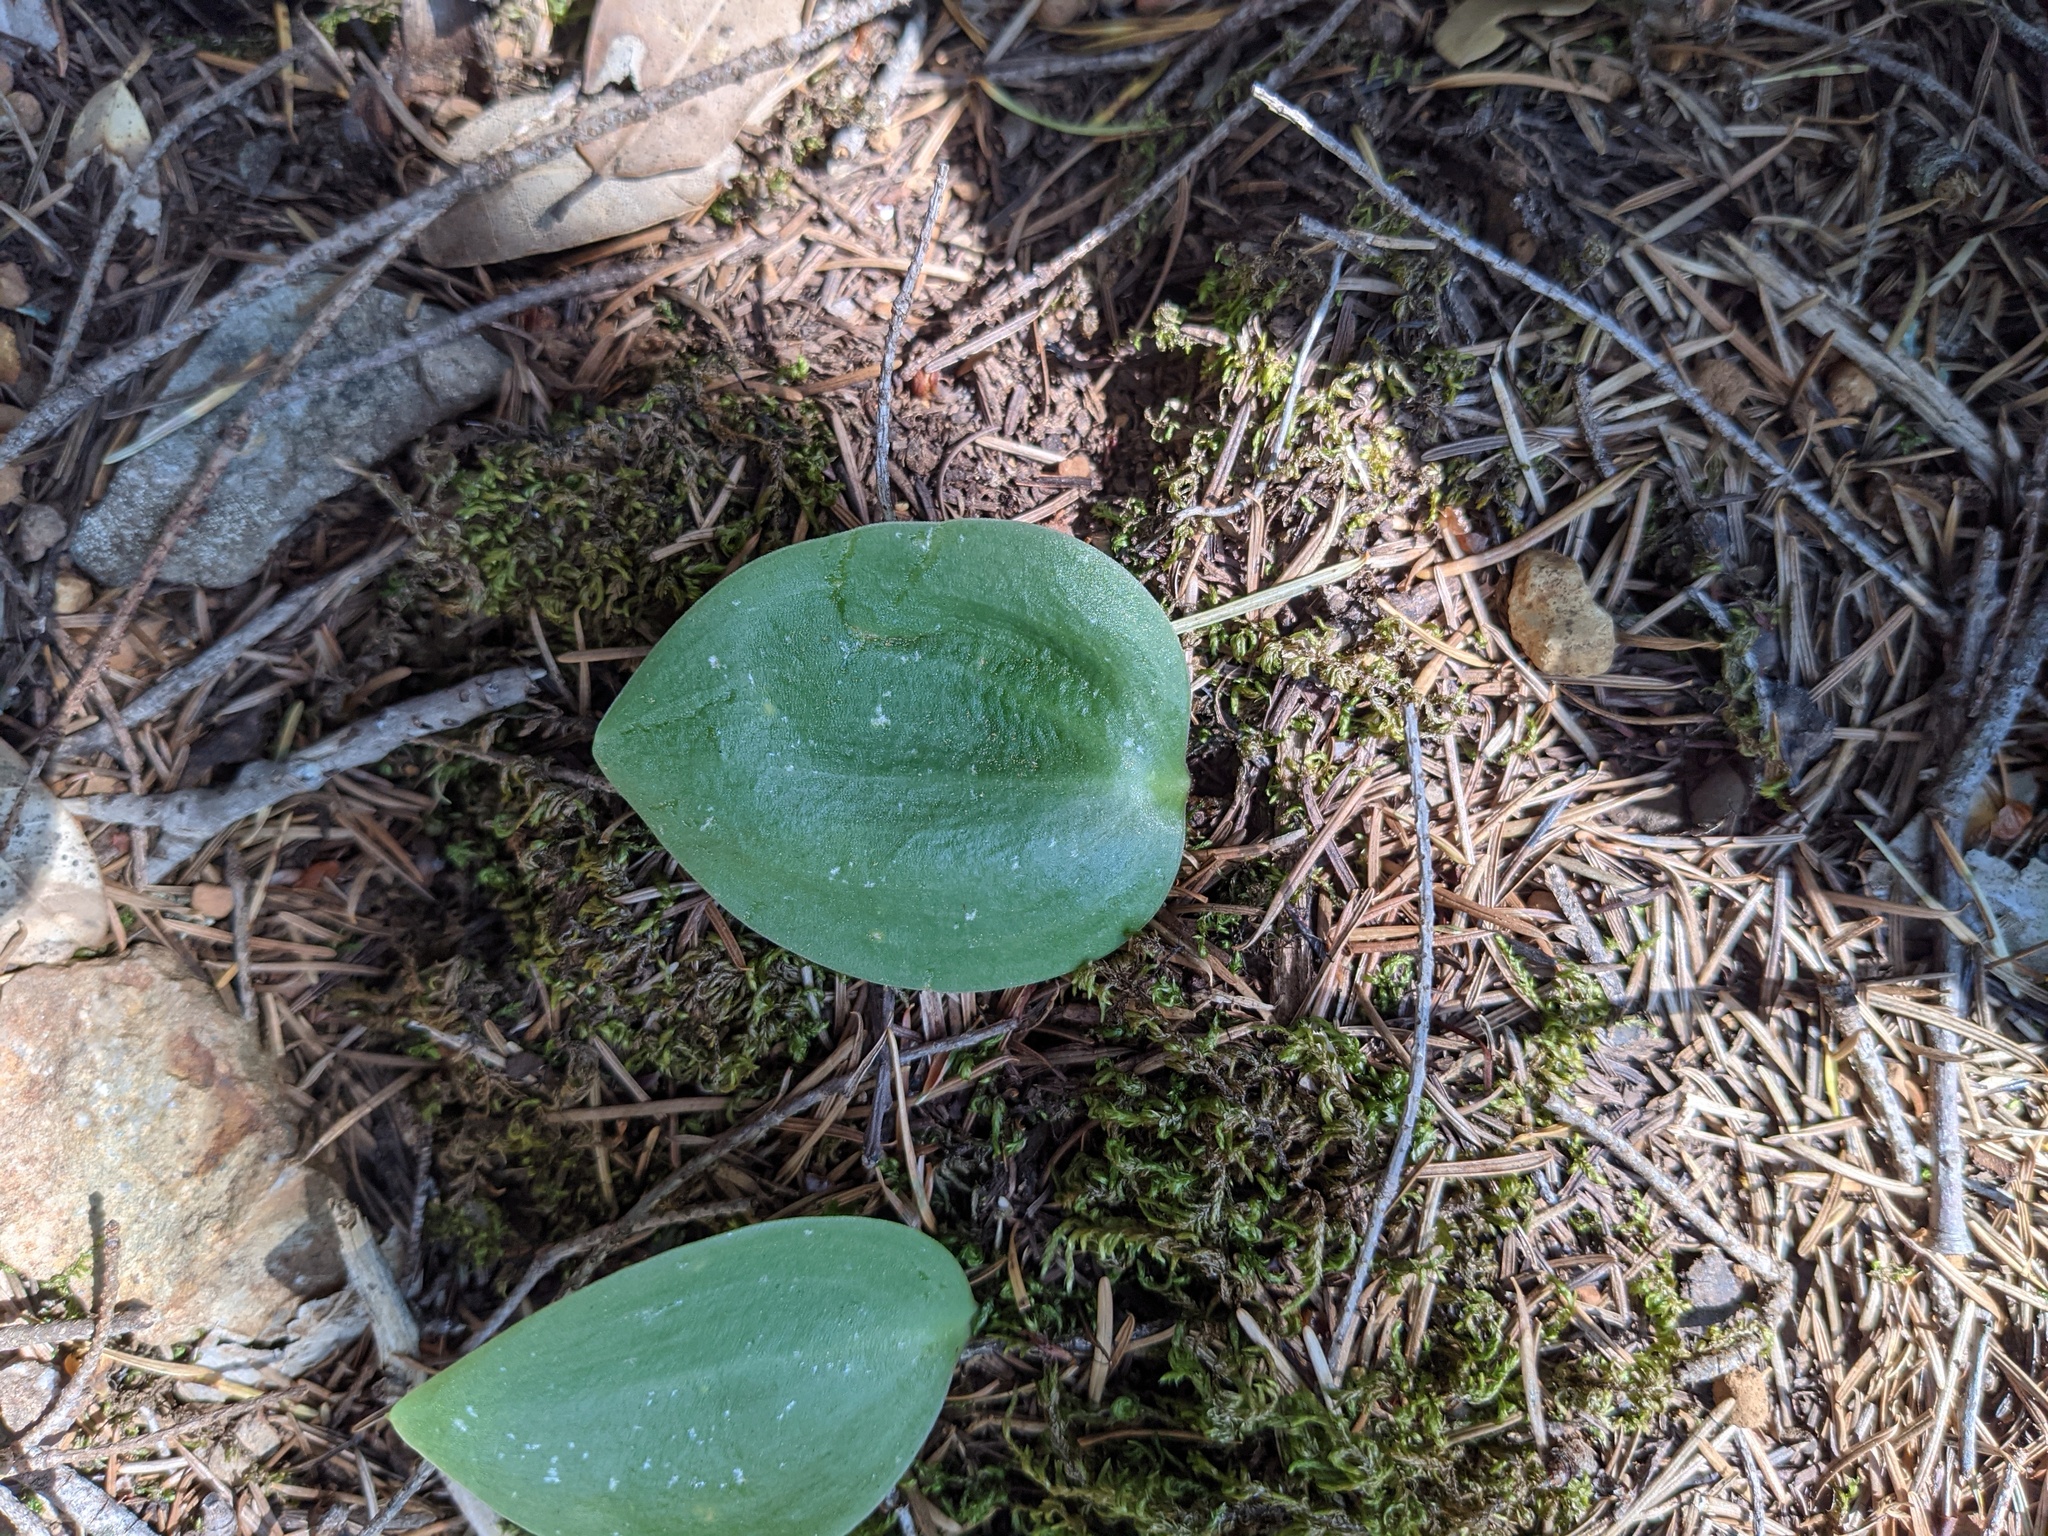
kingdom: Plantae
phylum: Tracheophyta
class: Liliopsida
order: Liliales
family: Liliaceae
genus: Fritillaria
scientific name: Fritillaria affinis
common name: Ojai fritillary
